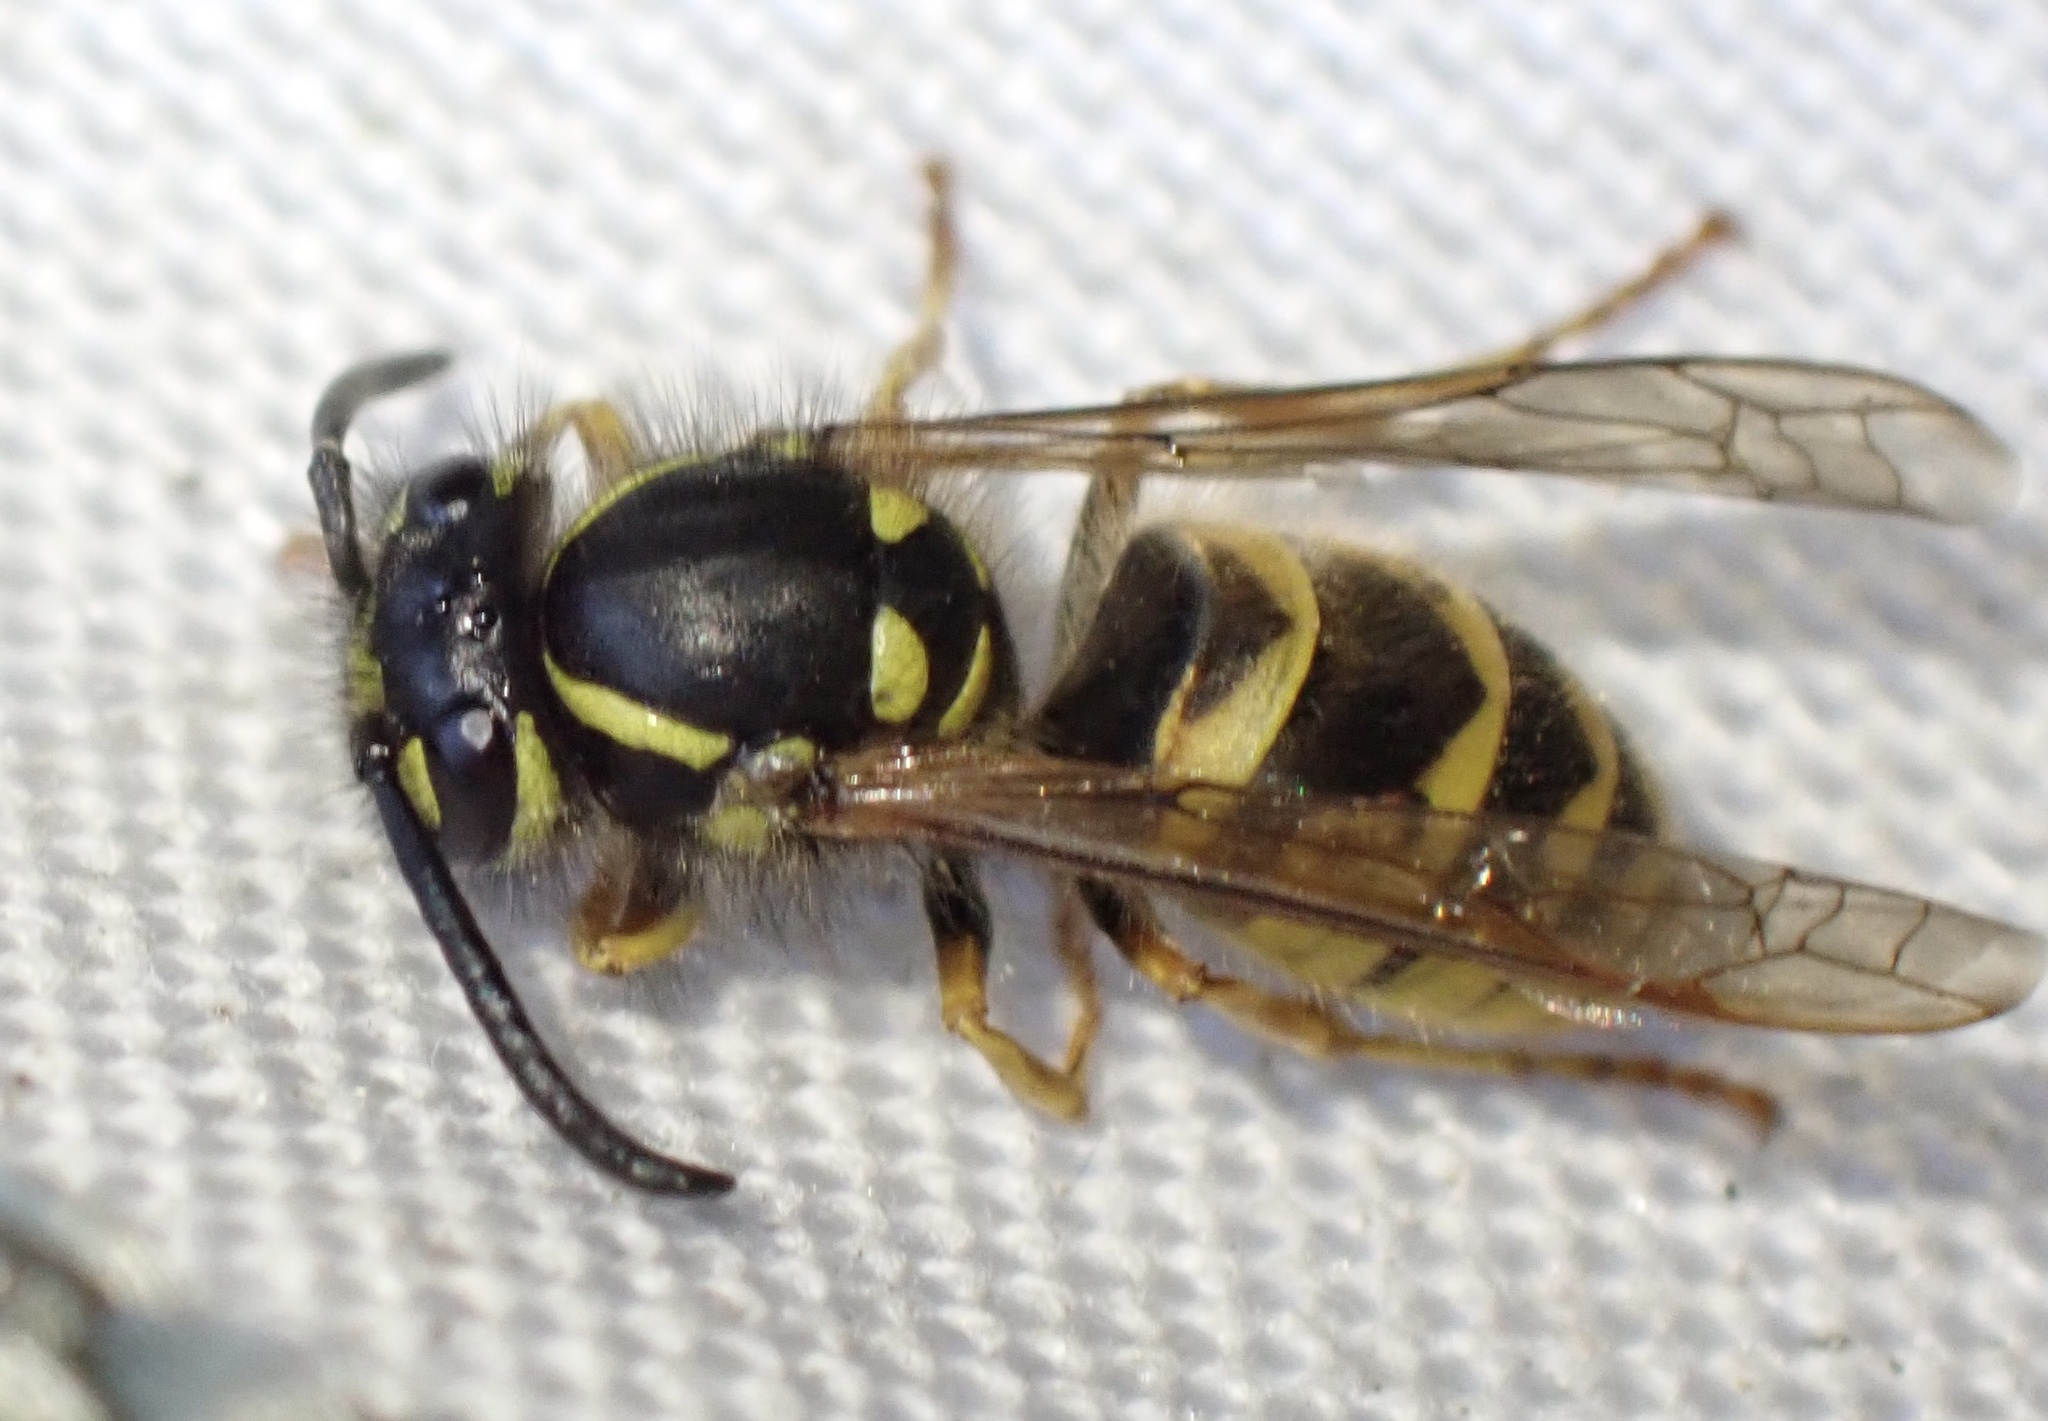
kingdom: Animalia
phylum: Arthropoda
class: Insecta
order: Hymenoptera
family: Vespidae
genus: Vespula
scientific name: Vespula vulgaris
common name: Common wasp
